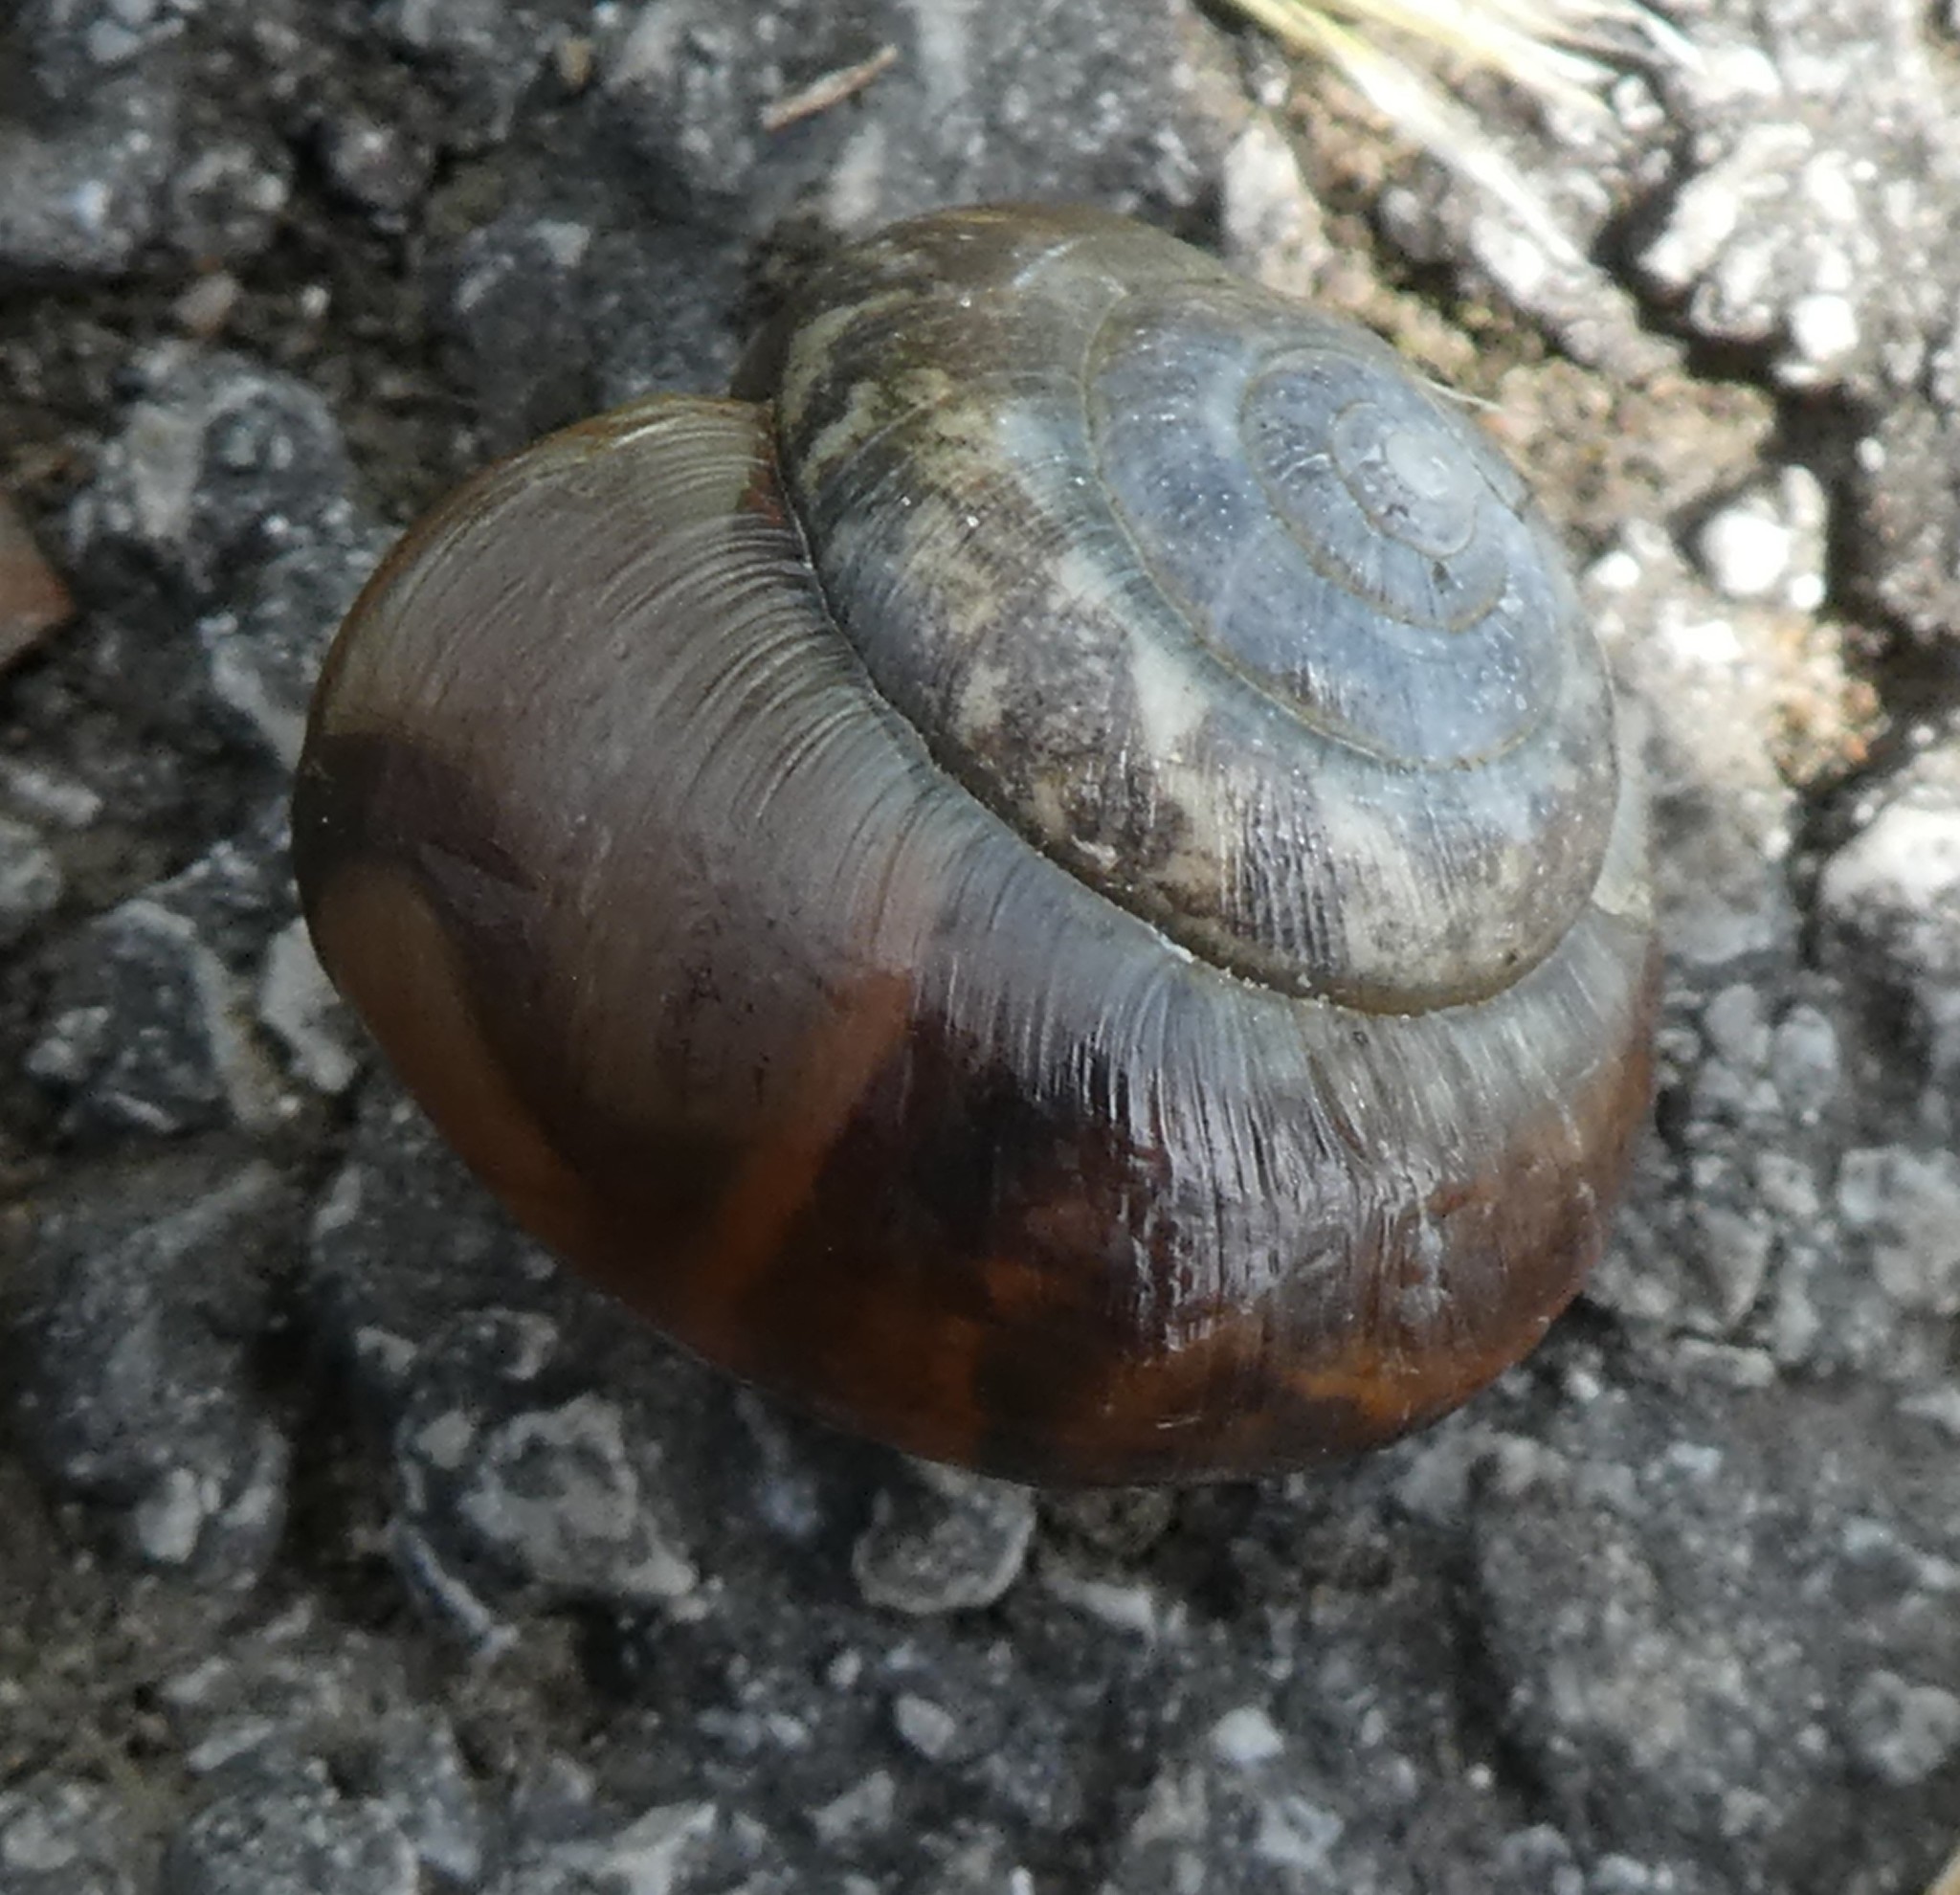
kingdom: Animalia
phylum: Mollusca
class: Gastropoda
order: Stylommatophora
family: Hygromiidae
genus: Zenobiellina
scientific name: Zenobiellina subrufescens
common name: Brown snail
